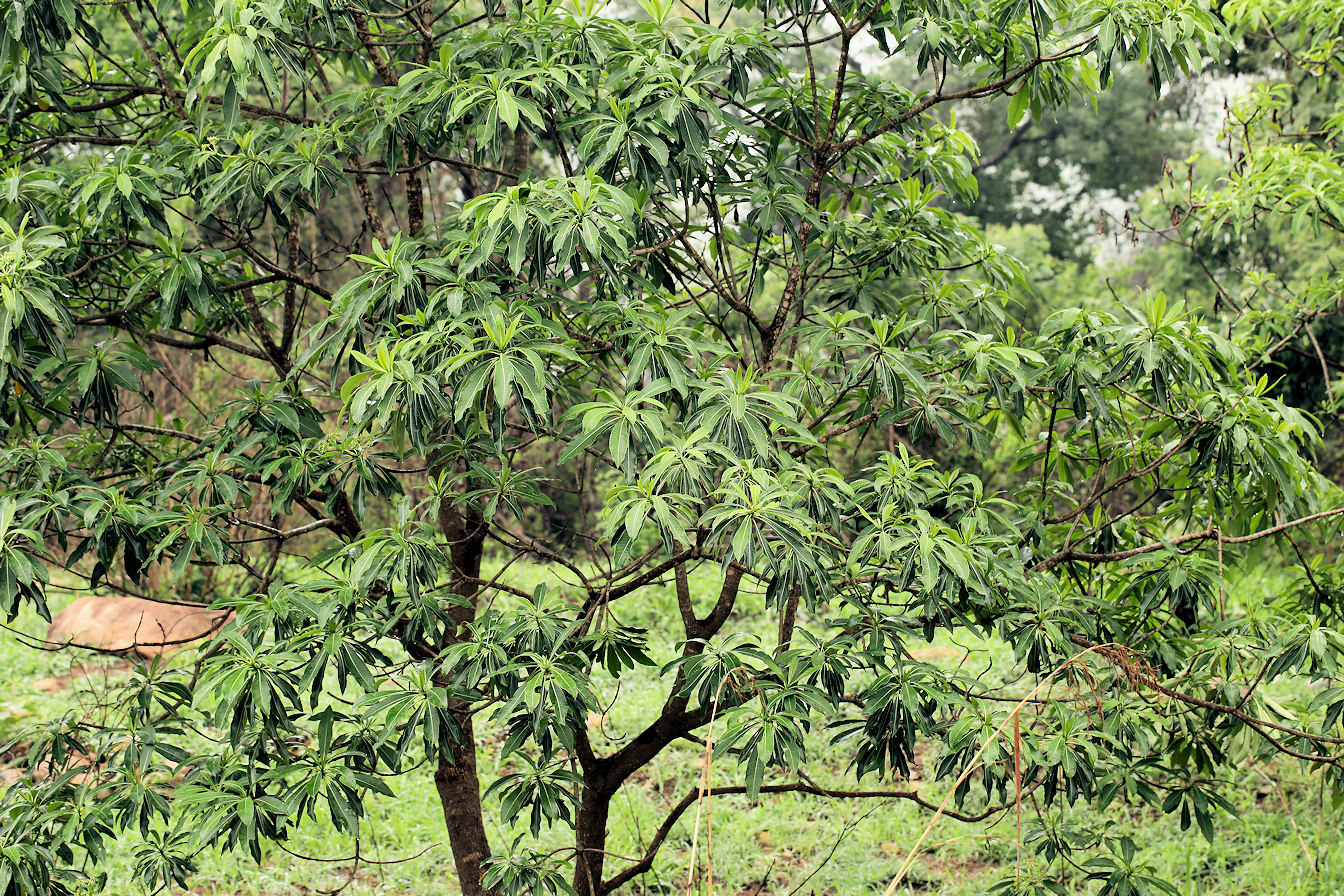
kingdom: Plantae
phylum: Tracheophyta
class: Magnoliopsida
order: Gentianales
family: Apocynaceae
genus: Rauvolfia
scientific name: Rauvolfia caffra
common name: Quininetree
